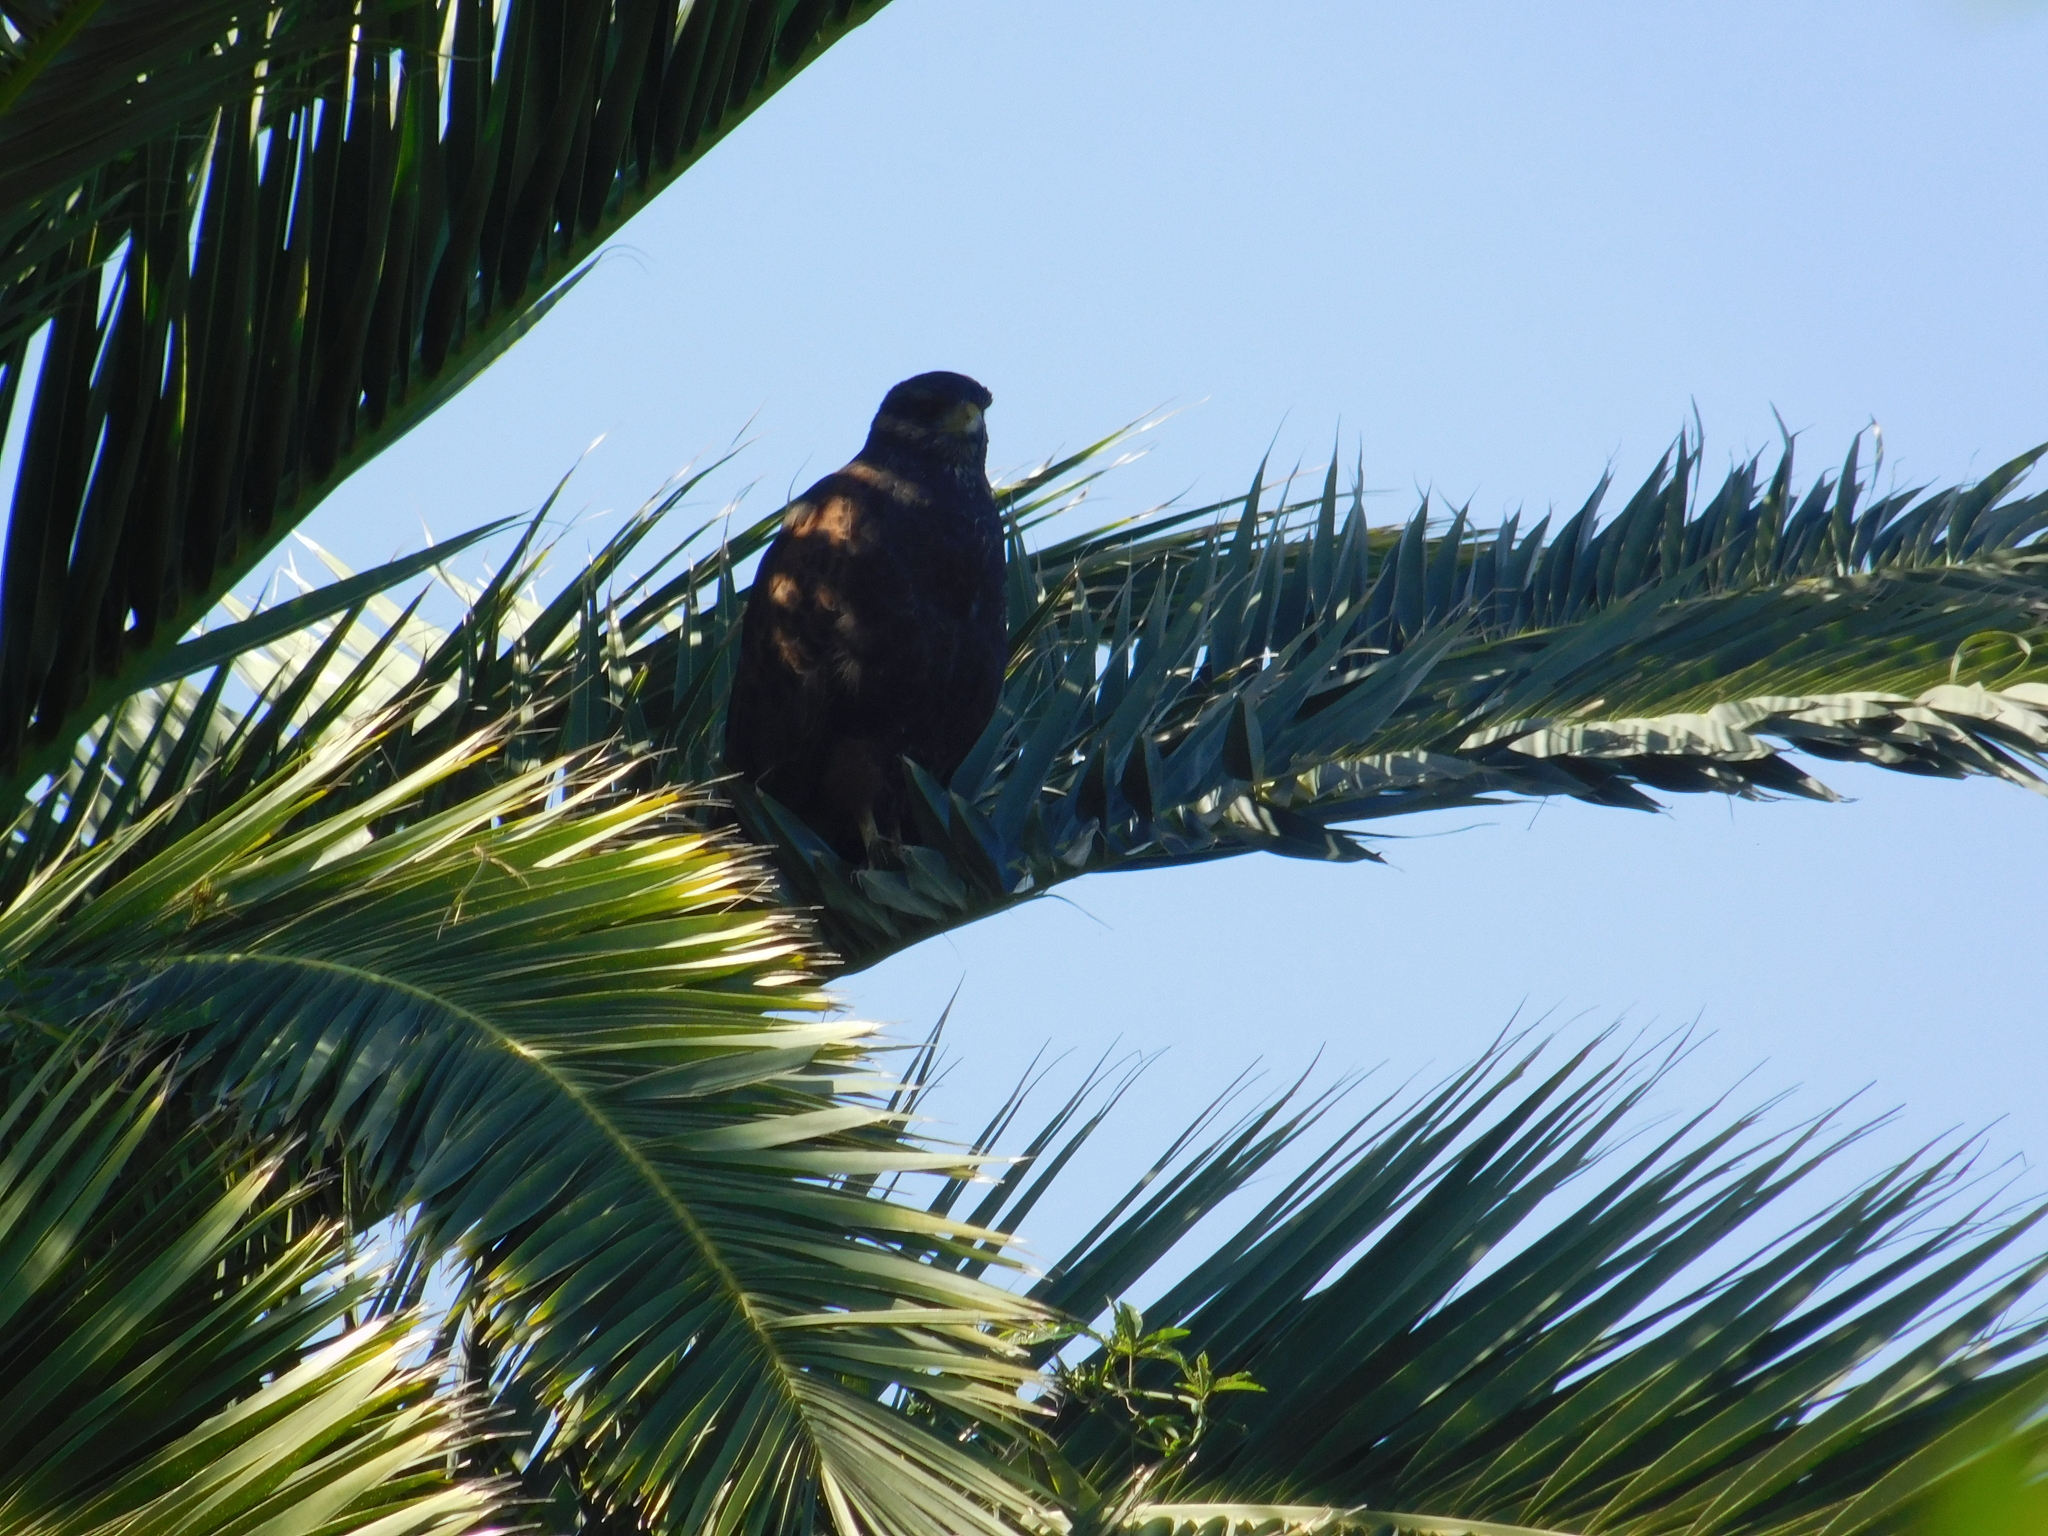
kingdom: Animalia
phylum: Chordata
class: Aves
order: Accipitriformes
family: Accipitridae
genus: Parabuteo
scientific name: Parabuteo unicinctus
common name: Harris's hawk
